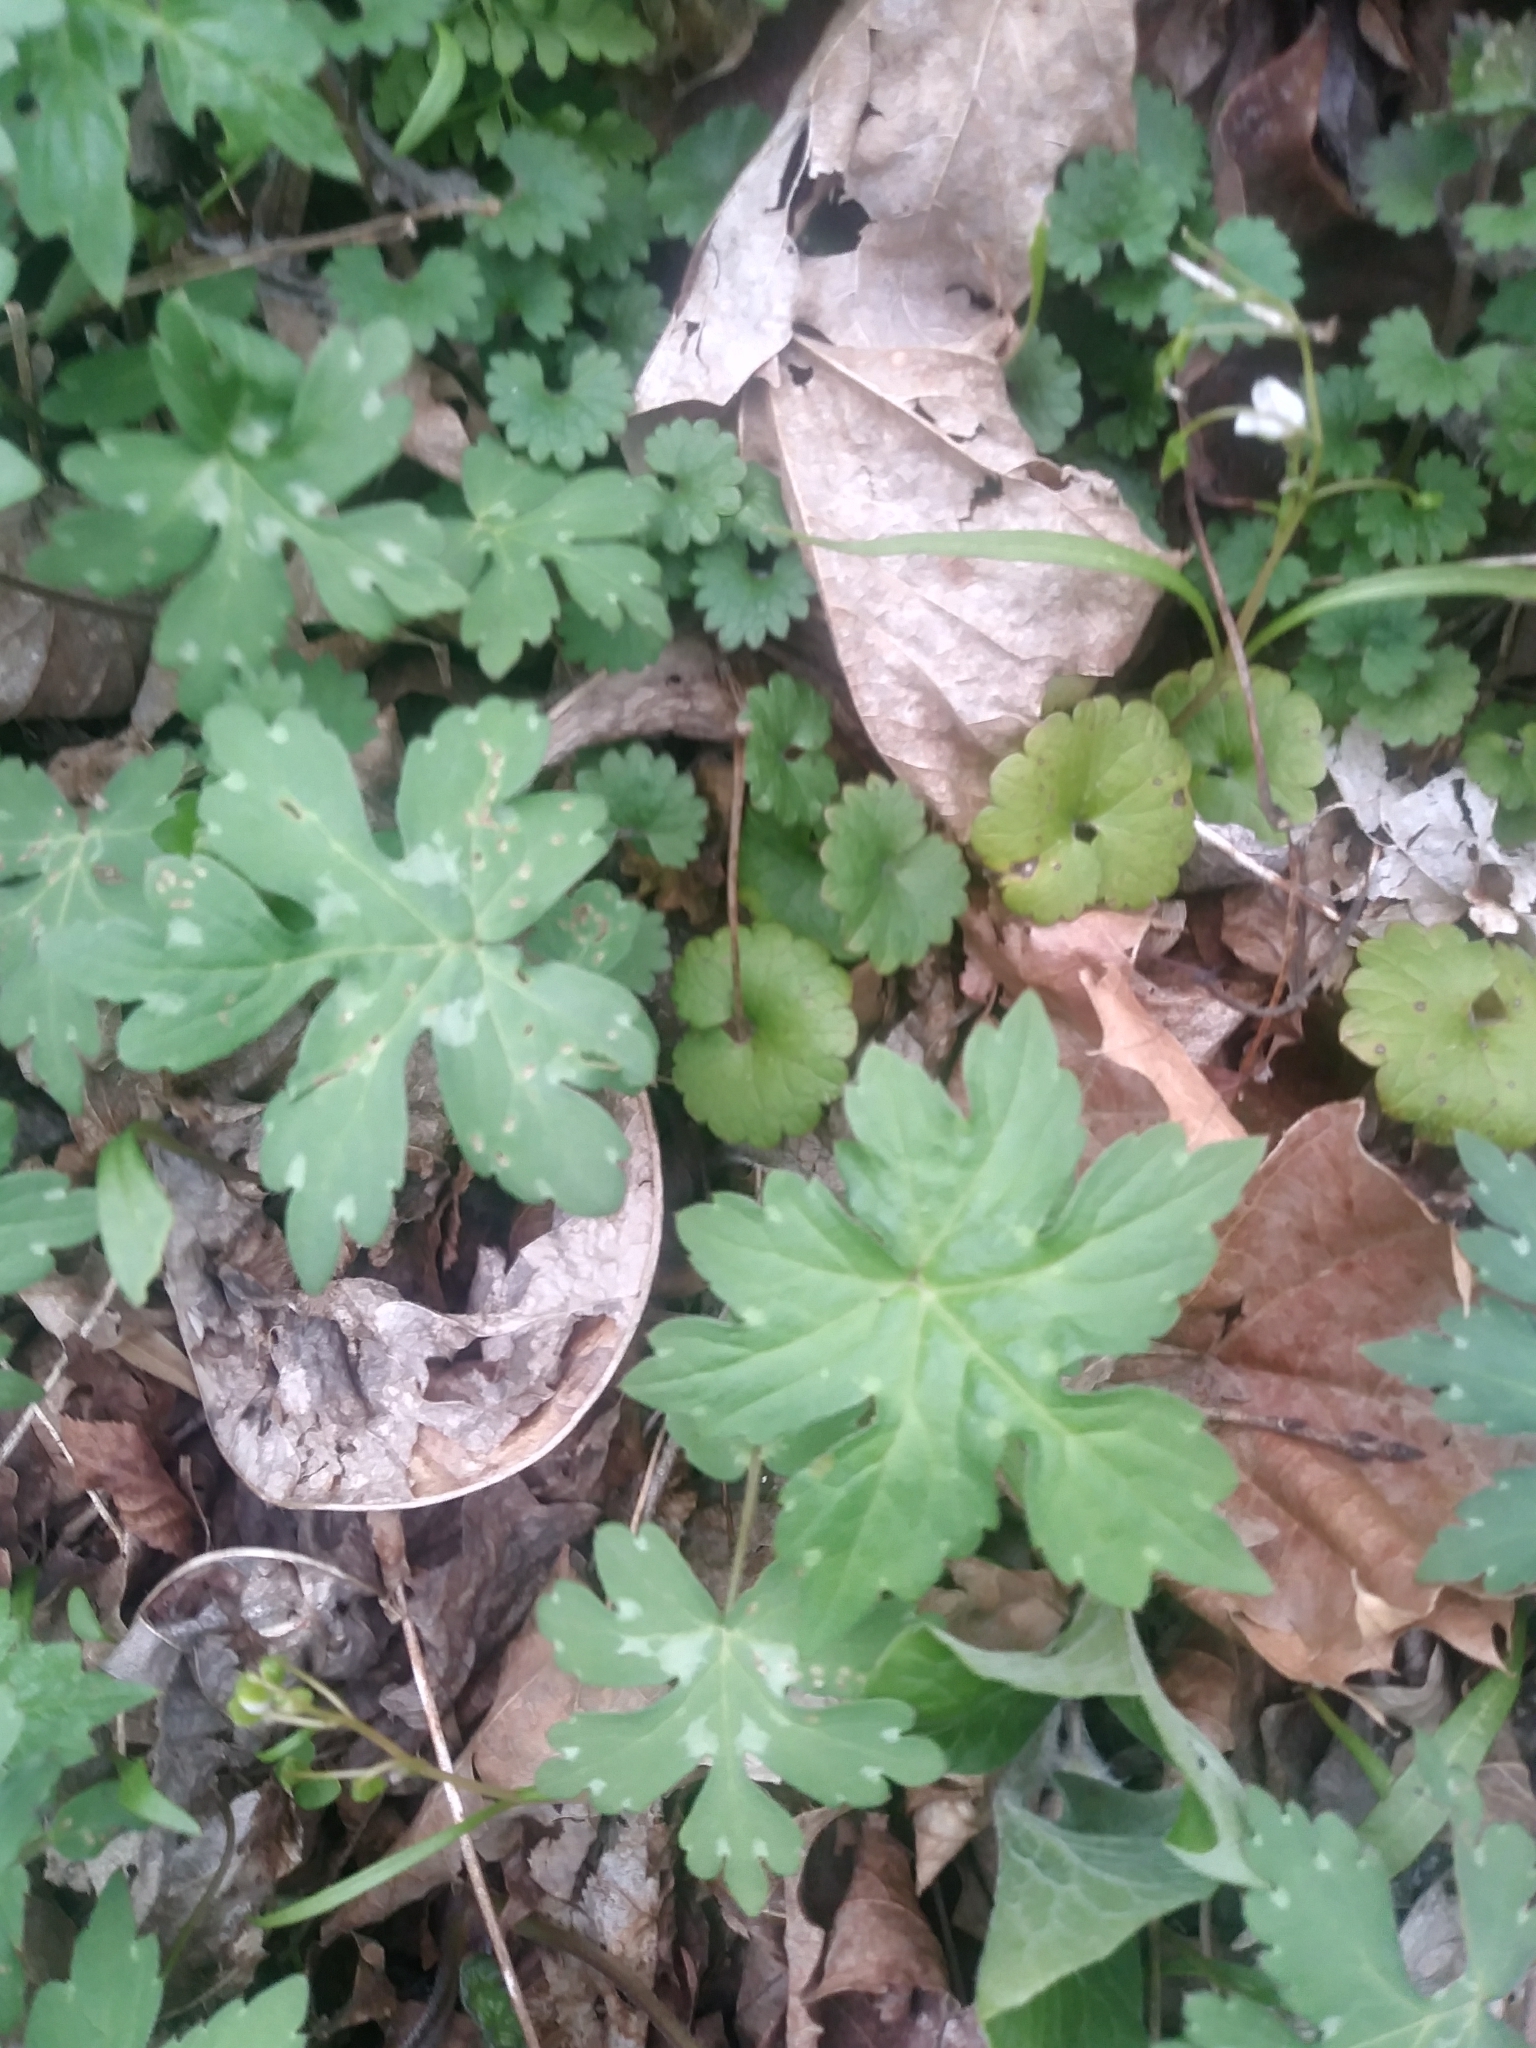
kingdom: Plantae
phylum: Tracheophyta
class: Magnoliopsida
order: Boraginales
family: Hydrophyllaceae
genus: Hydrophyllum
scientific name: Hydrophyllum canadense
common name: Canada waterleaf
